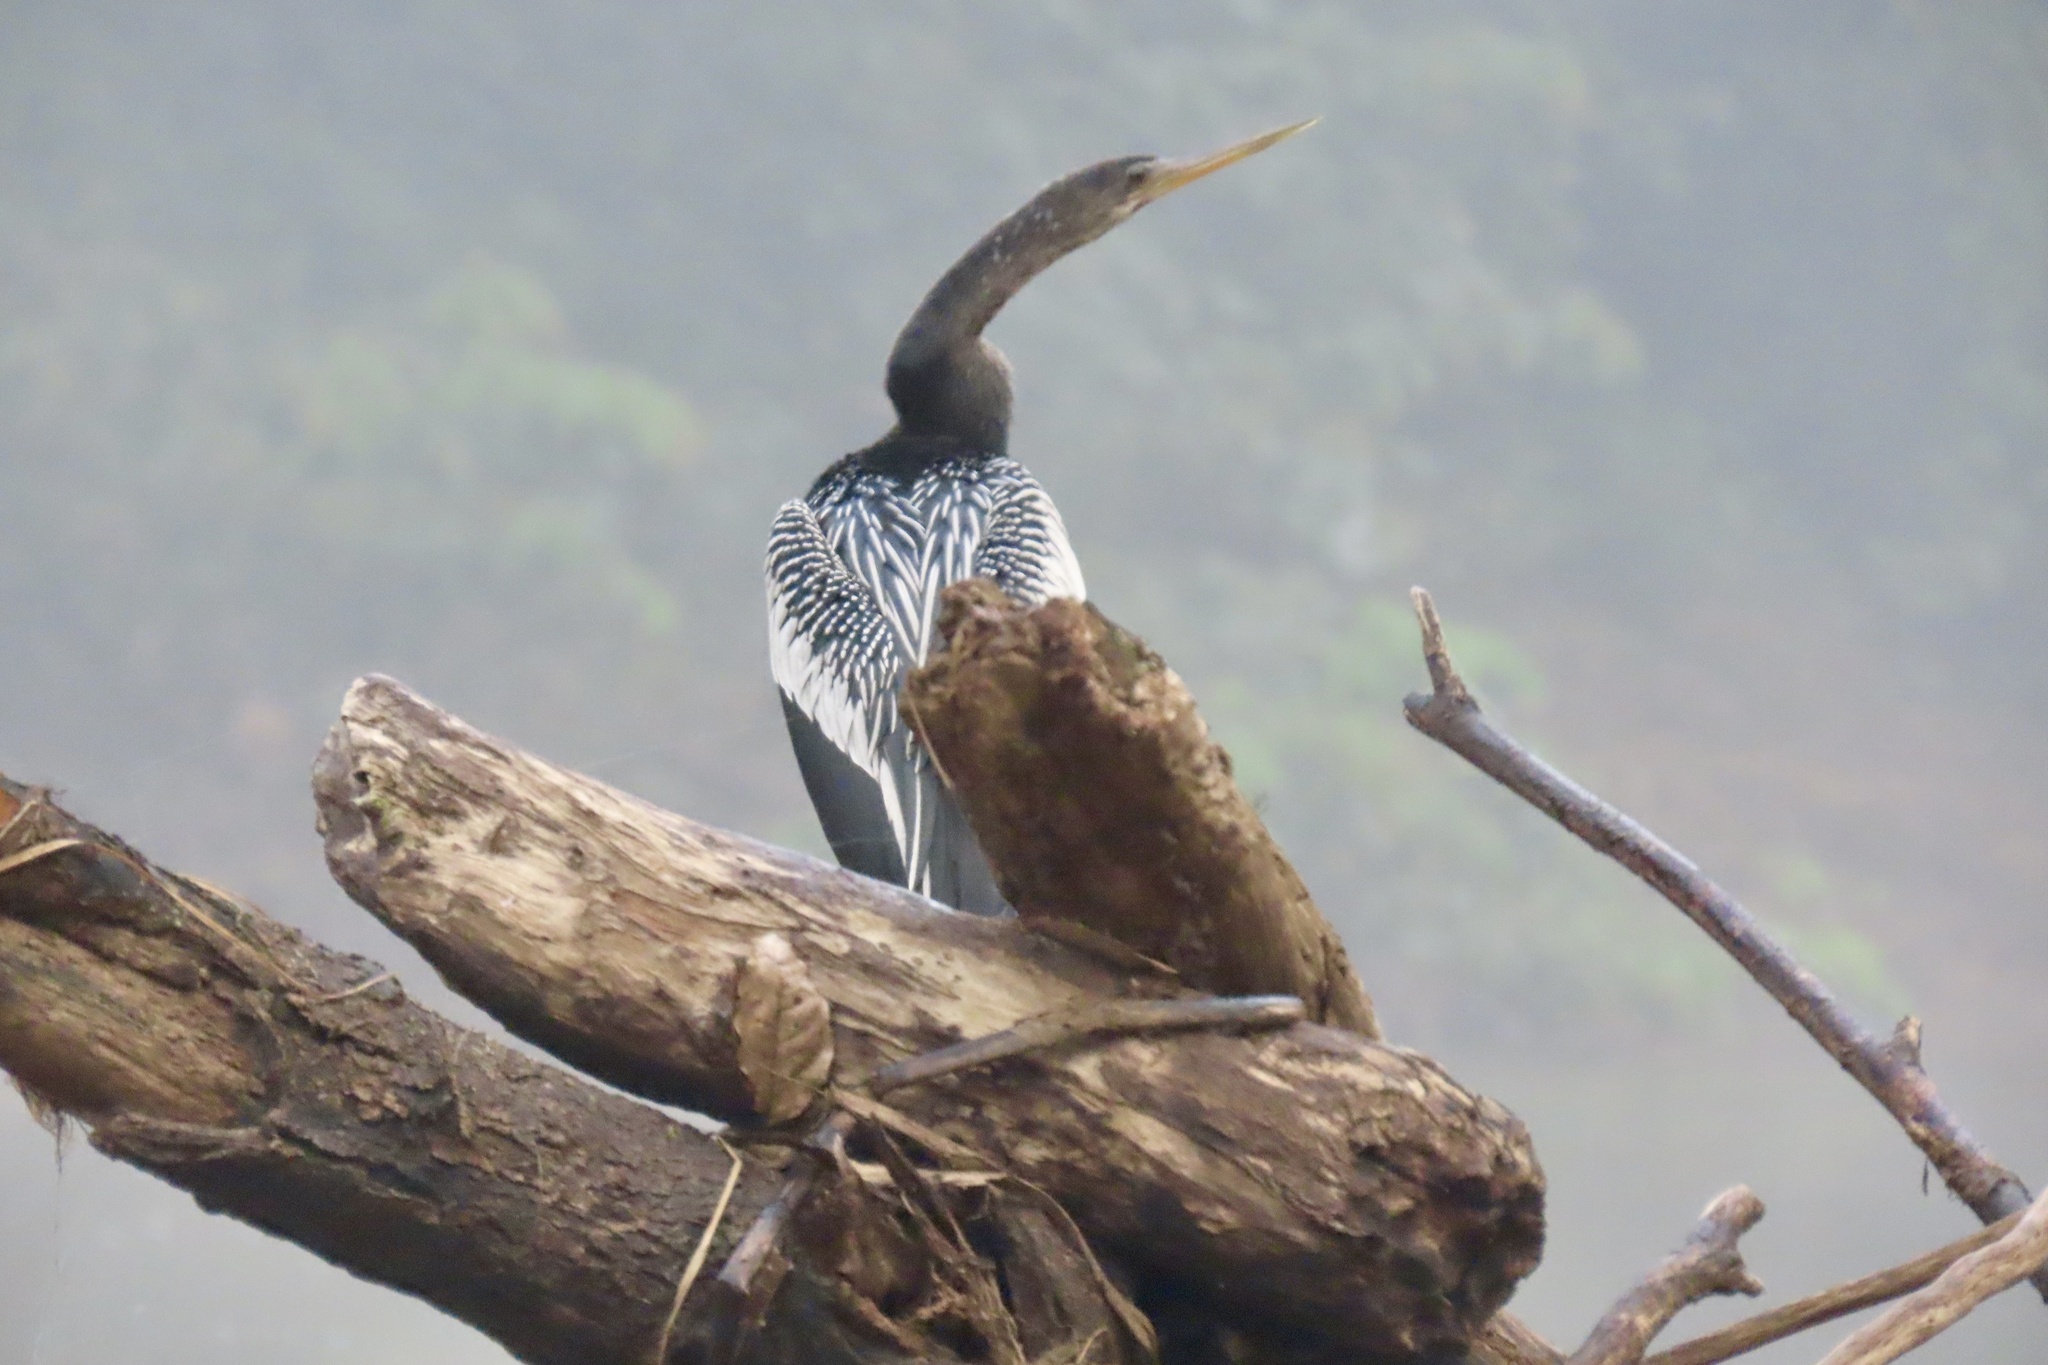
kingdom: Animalia
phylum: Chordata
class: Aves
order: Suliformes
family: Anhingidae
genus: Anhinga
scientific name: Anhinga anhinga
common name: Anhinga
